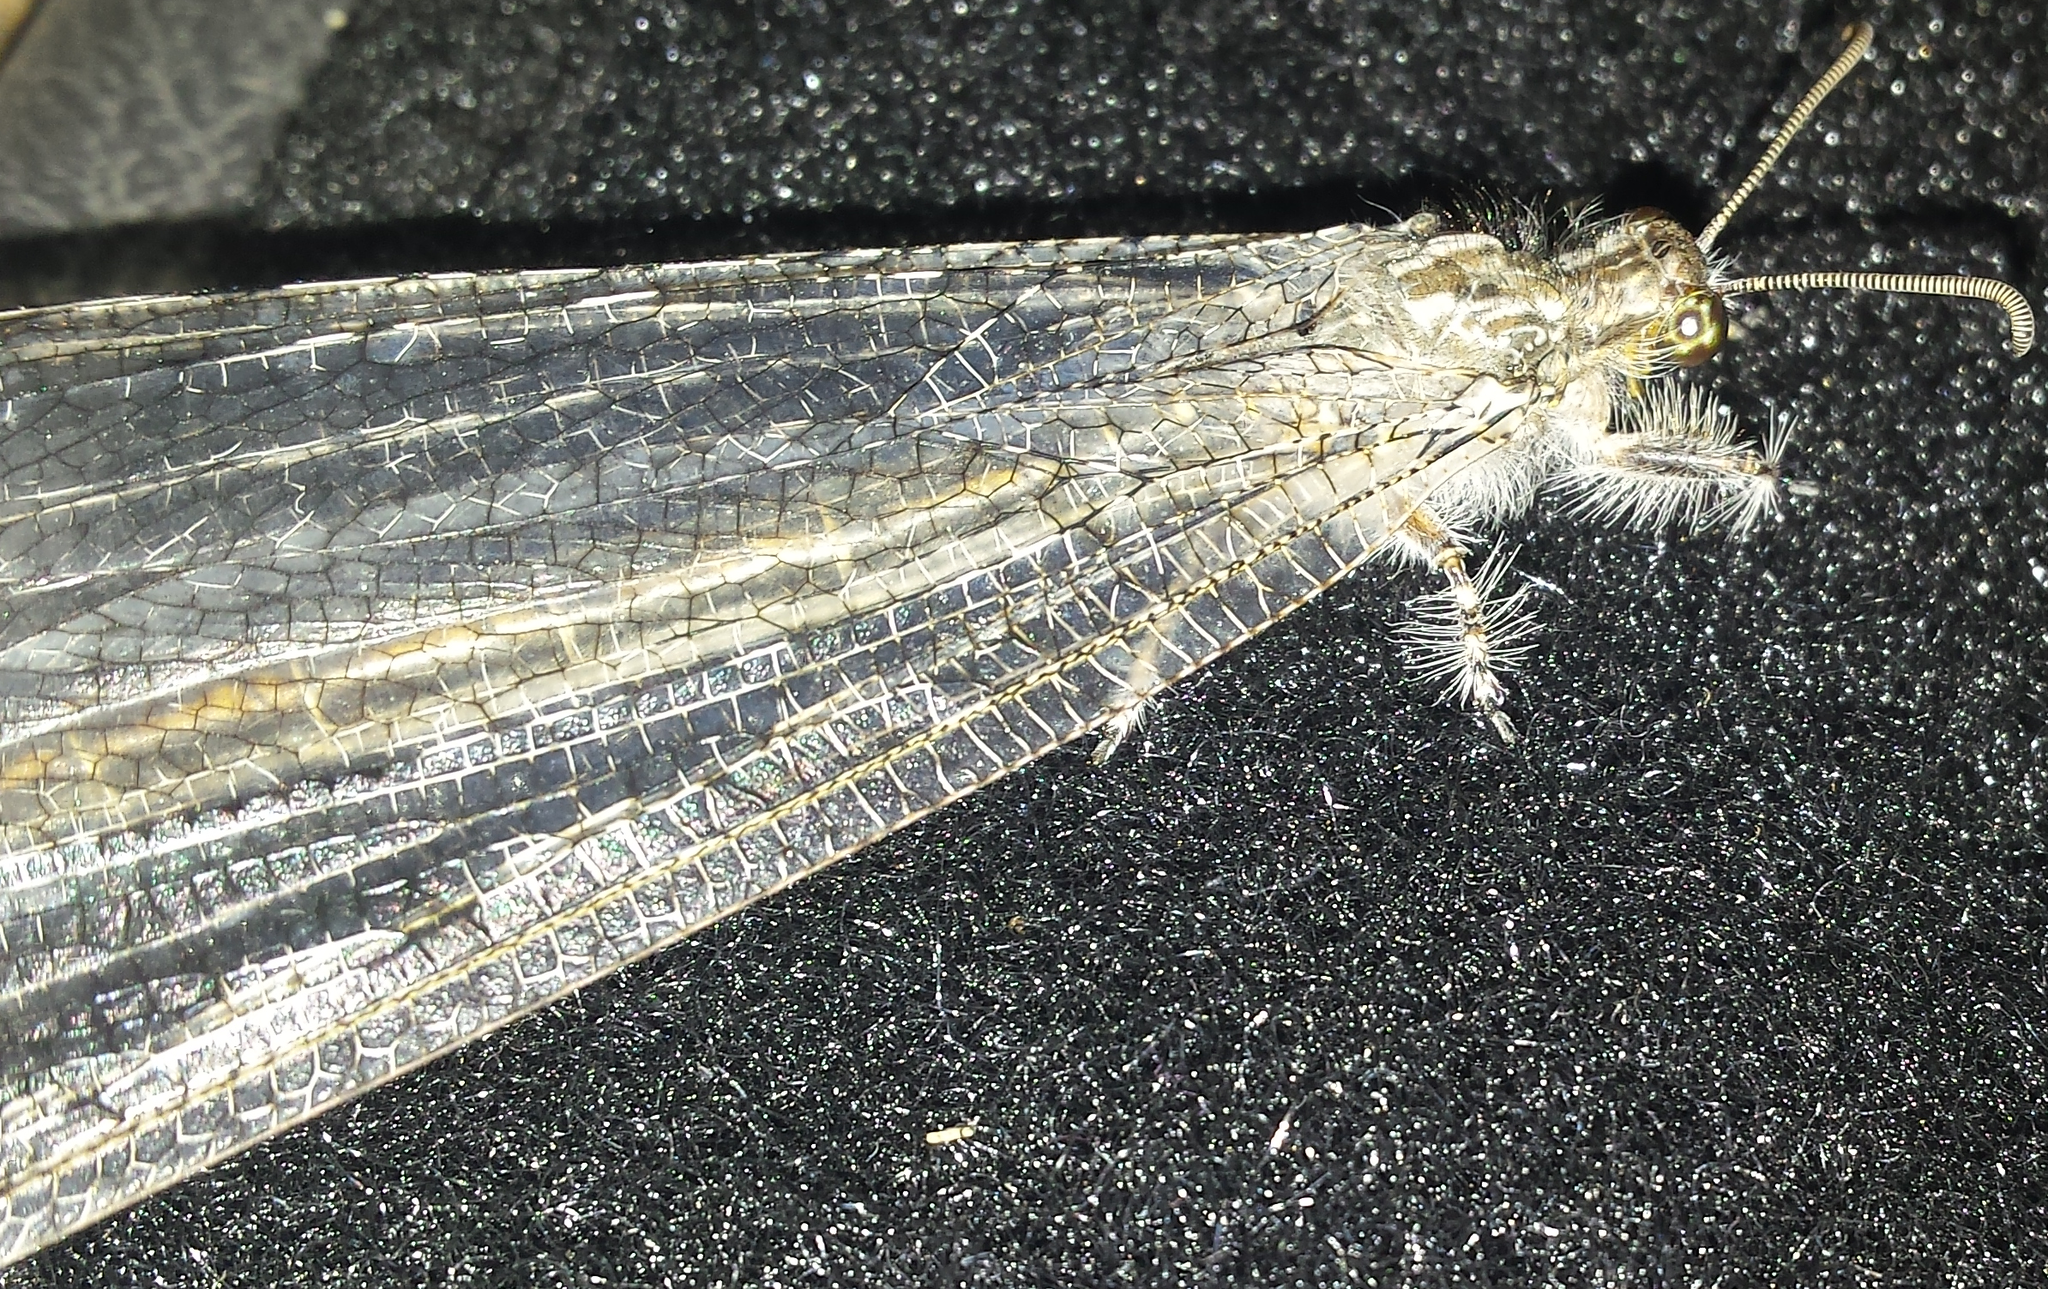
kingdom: Animalia
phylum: Arthropoda
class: Insecta
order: Neuroptera
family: Myrmeleontidae
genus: Vella
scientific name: Vella fallax
